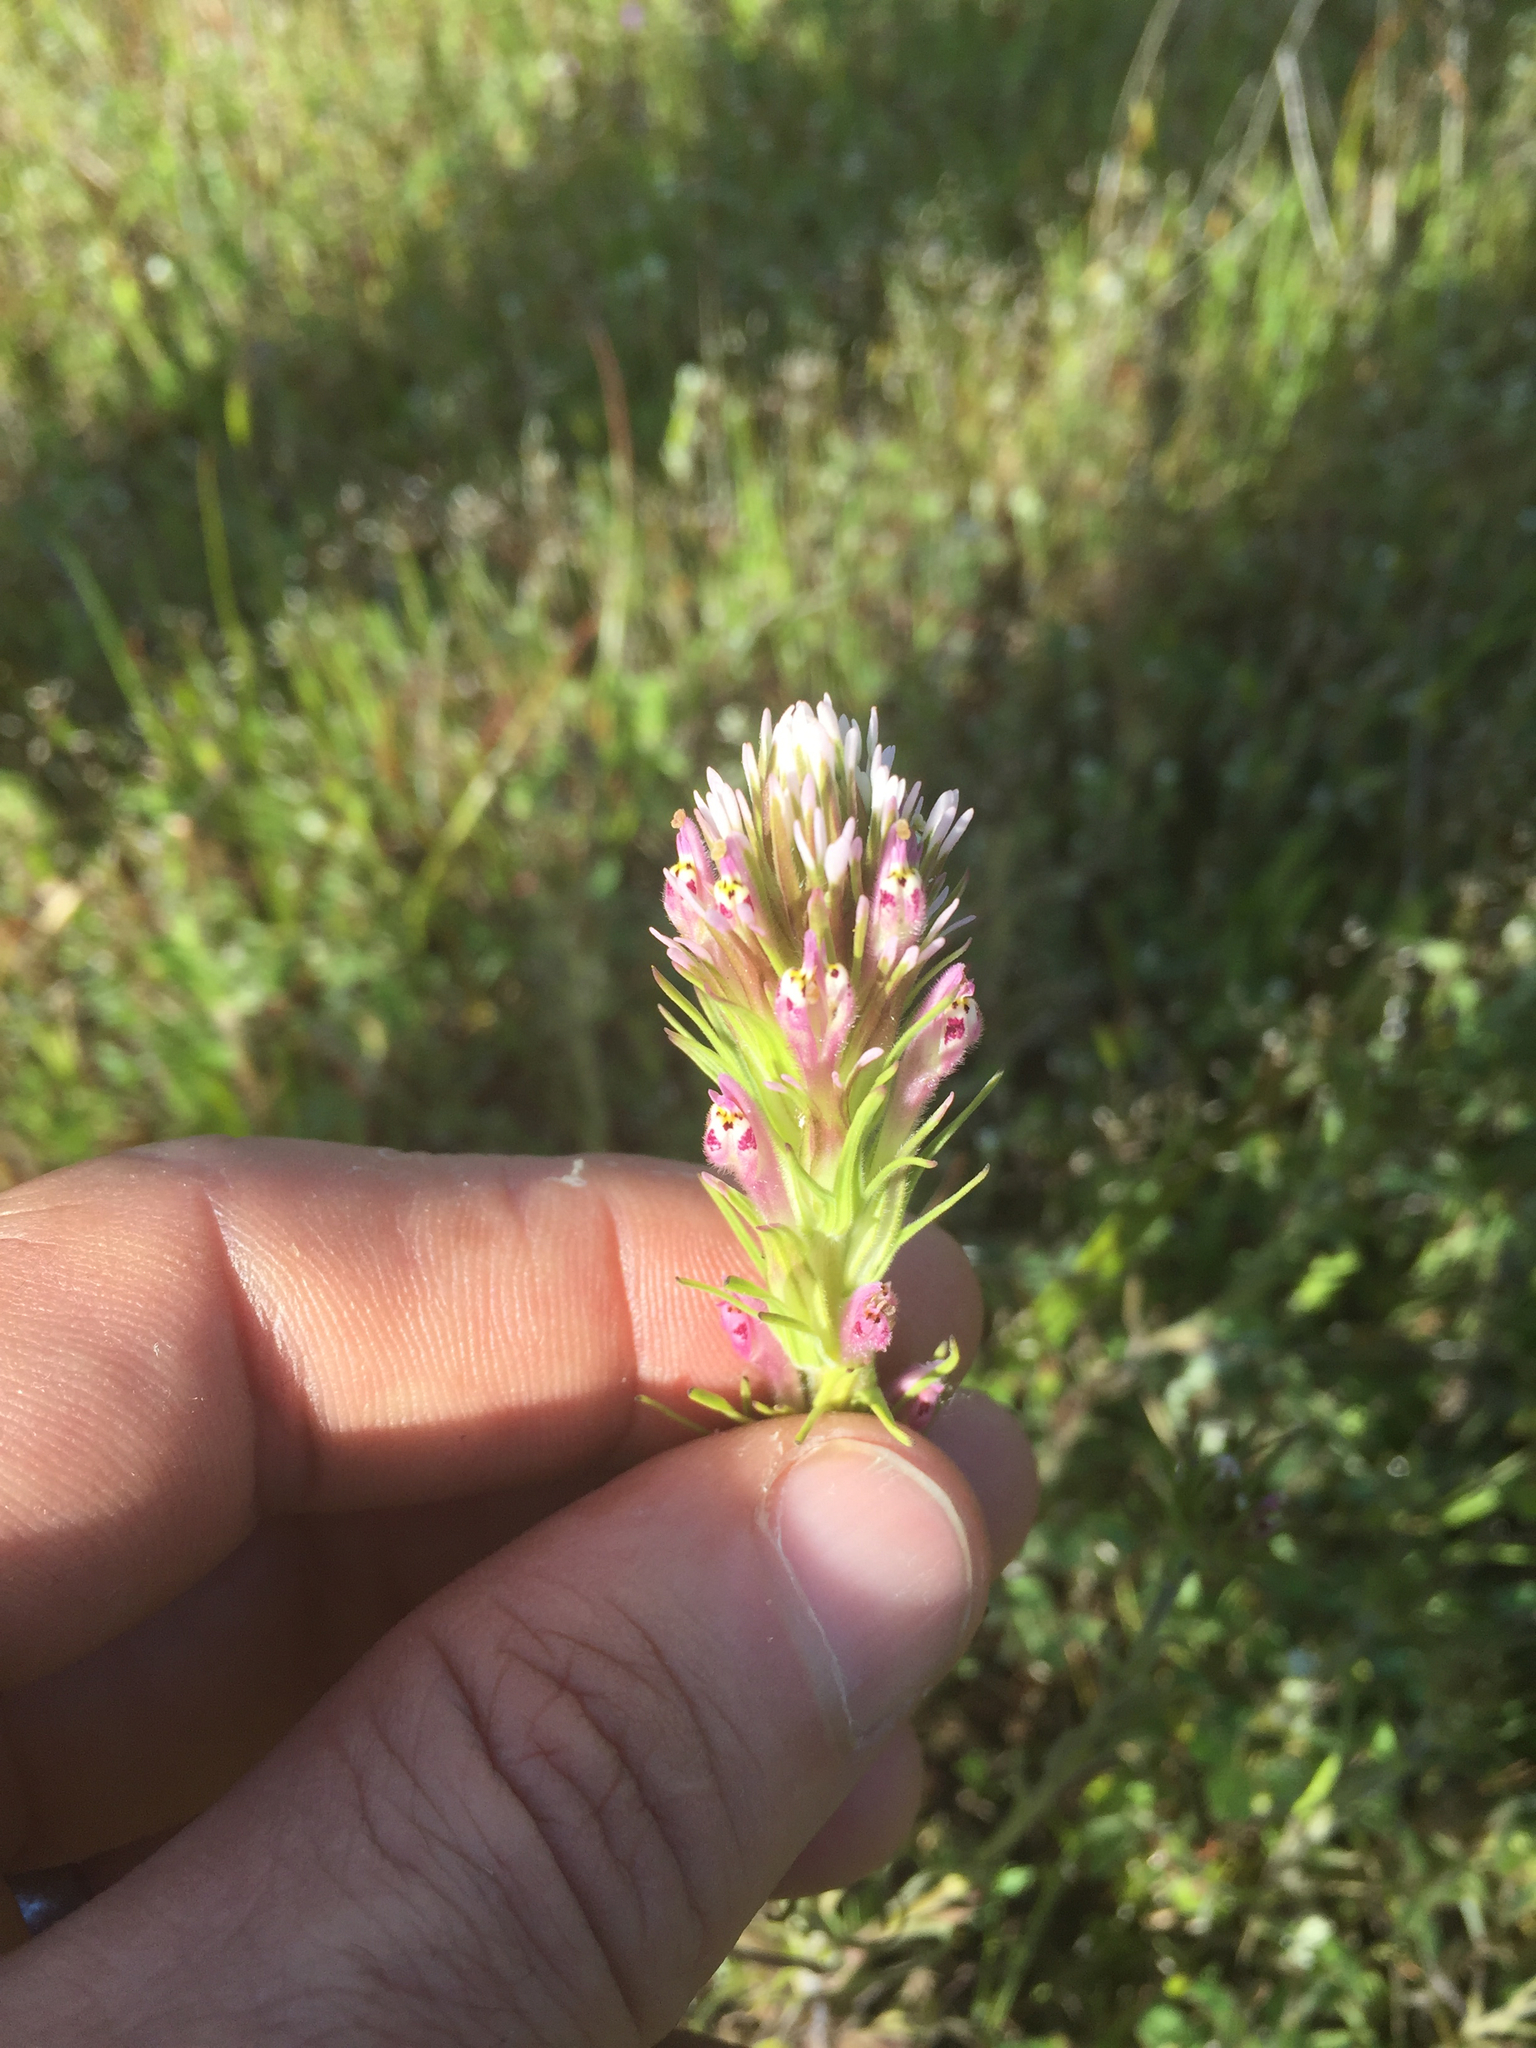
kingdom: Plantae
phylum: Tracheophyta
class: Magnoliopsida
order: Lamiales
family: Orobanchaceae
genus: Castilleja
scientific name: Castilleja attenuata
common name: Valley tassels
